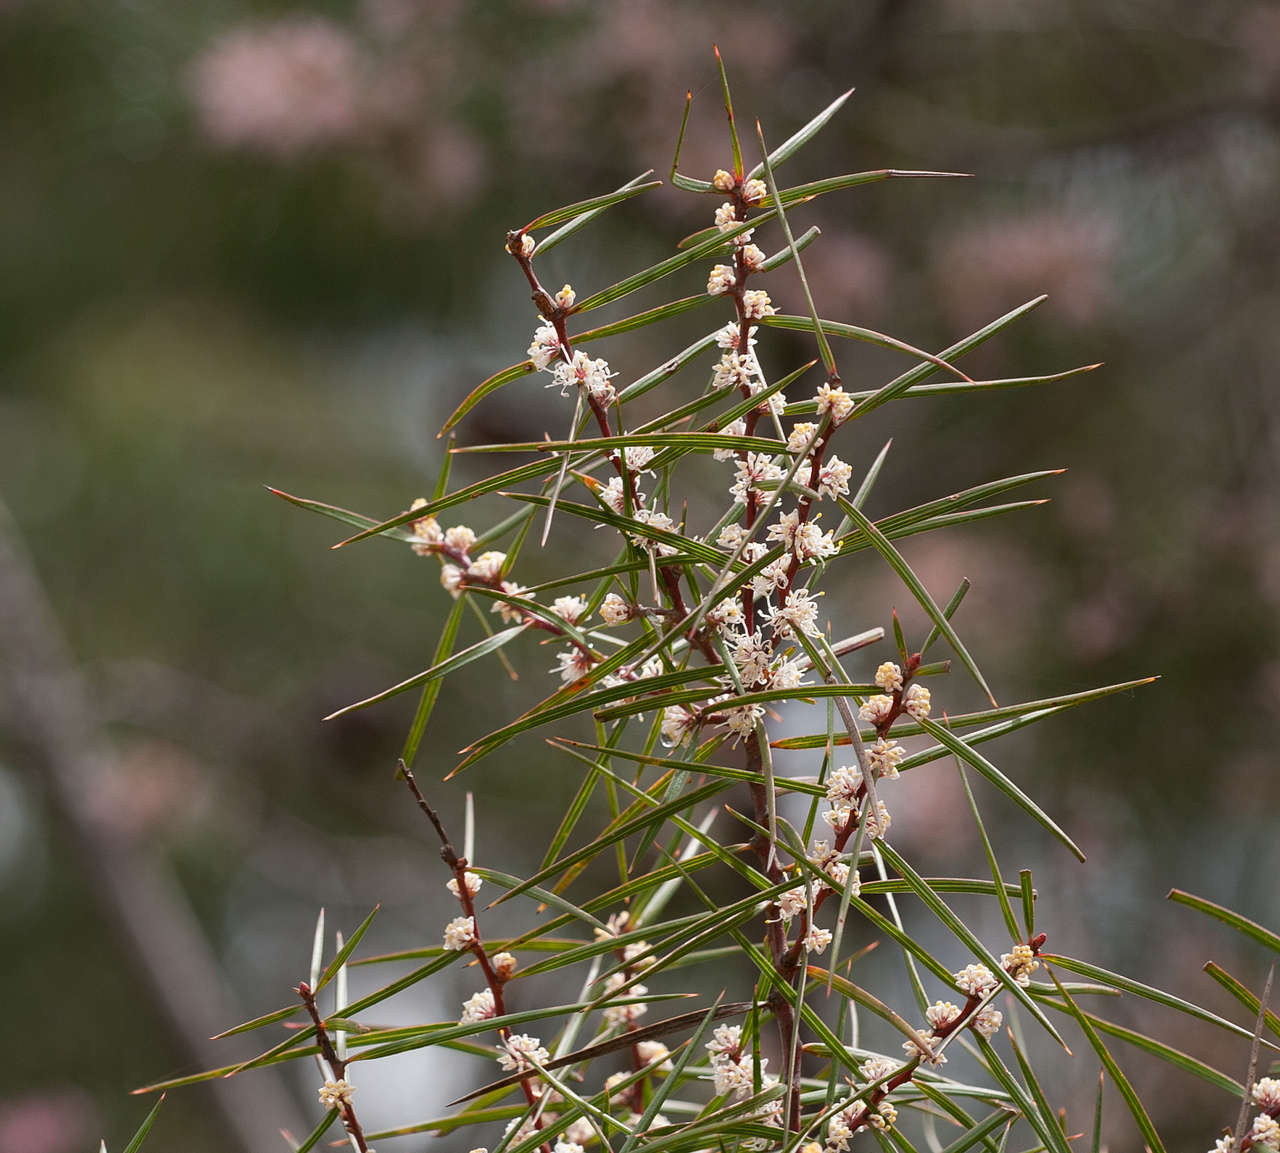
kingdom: Plantae
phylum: Tracheophyta
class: Magnoliopsida
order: Proteales
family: Proteaceae
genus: Hakea
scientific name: Hakea ulicina
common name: Furze hakea
